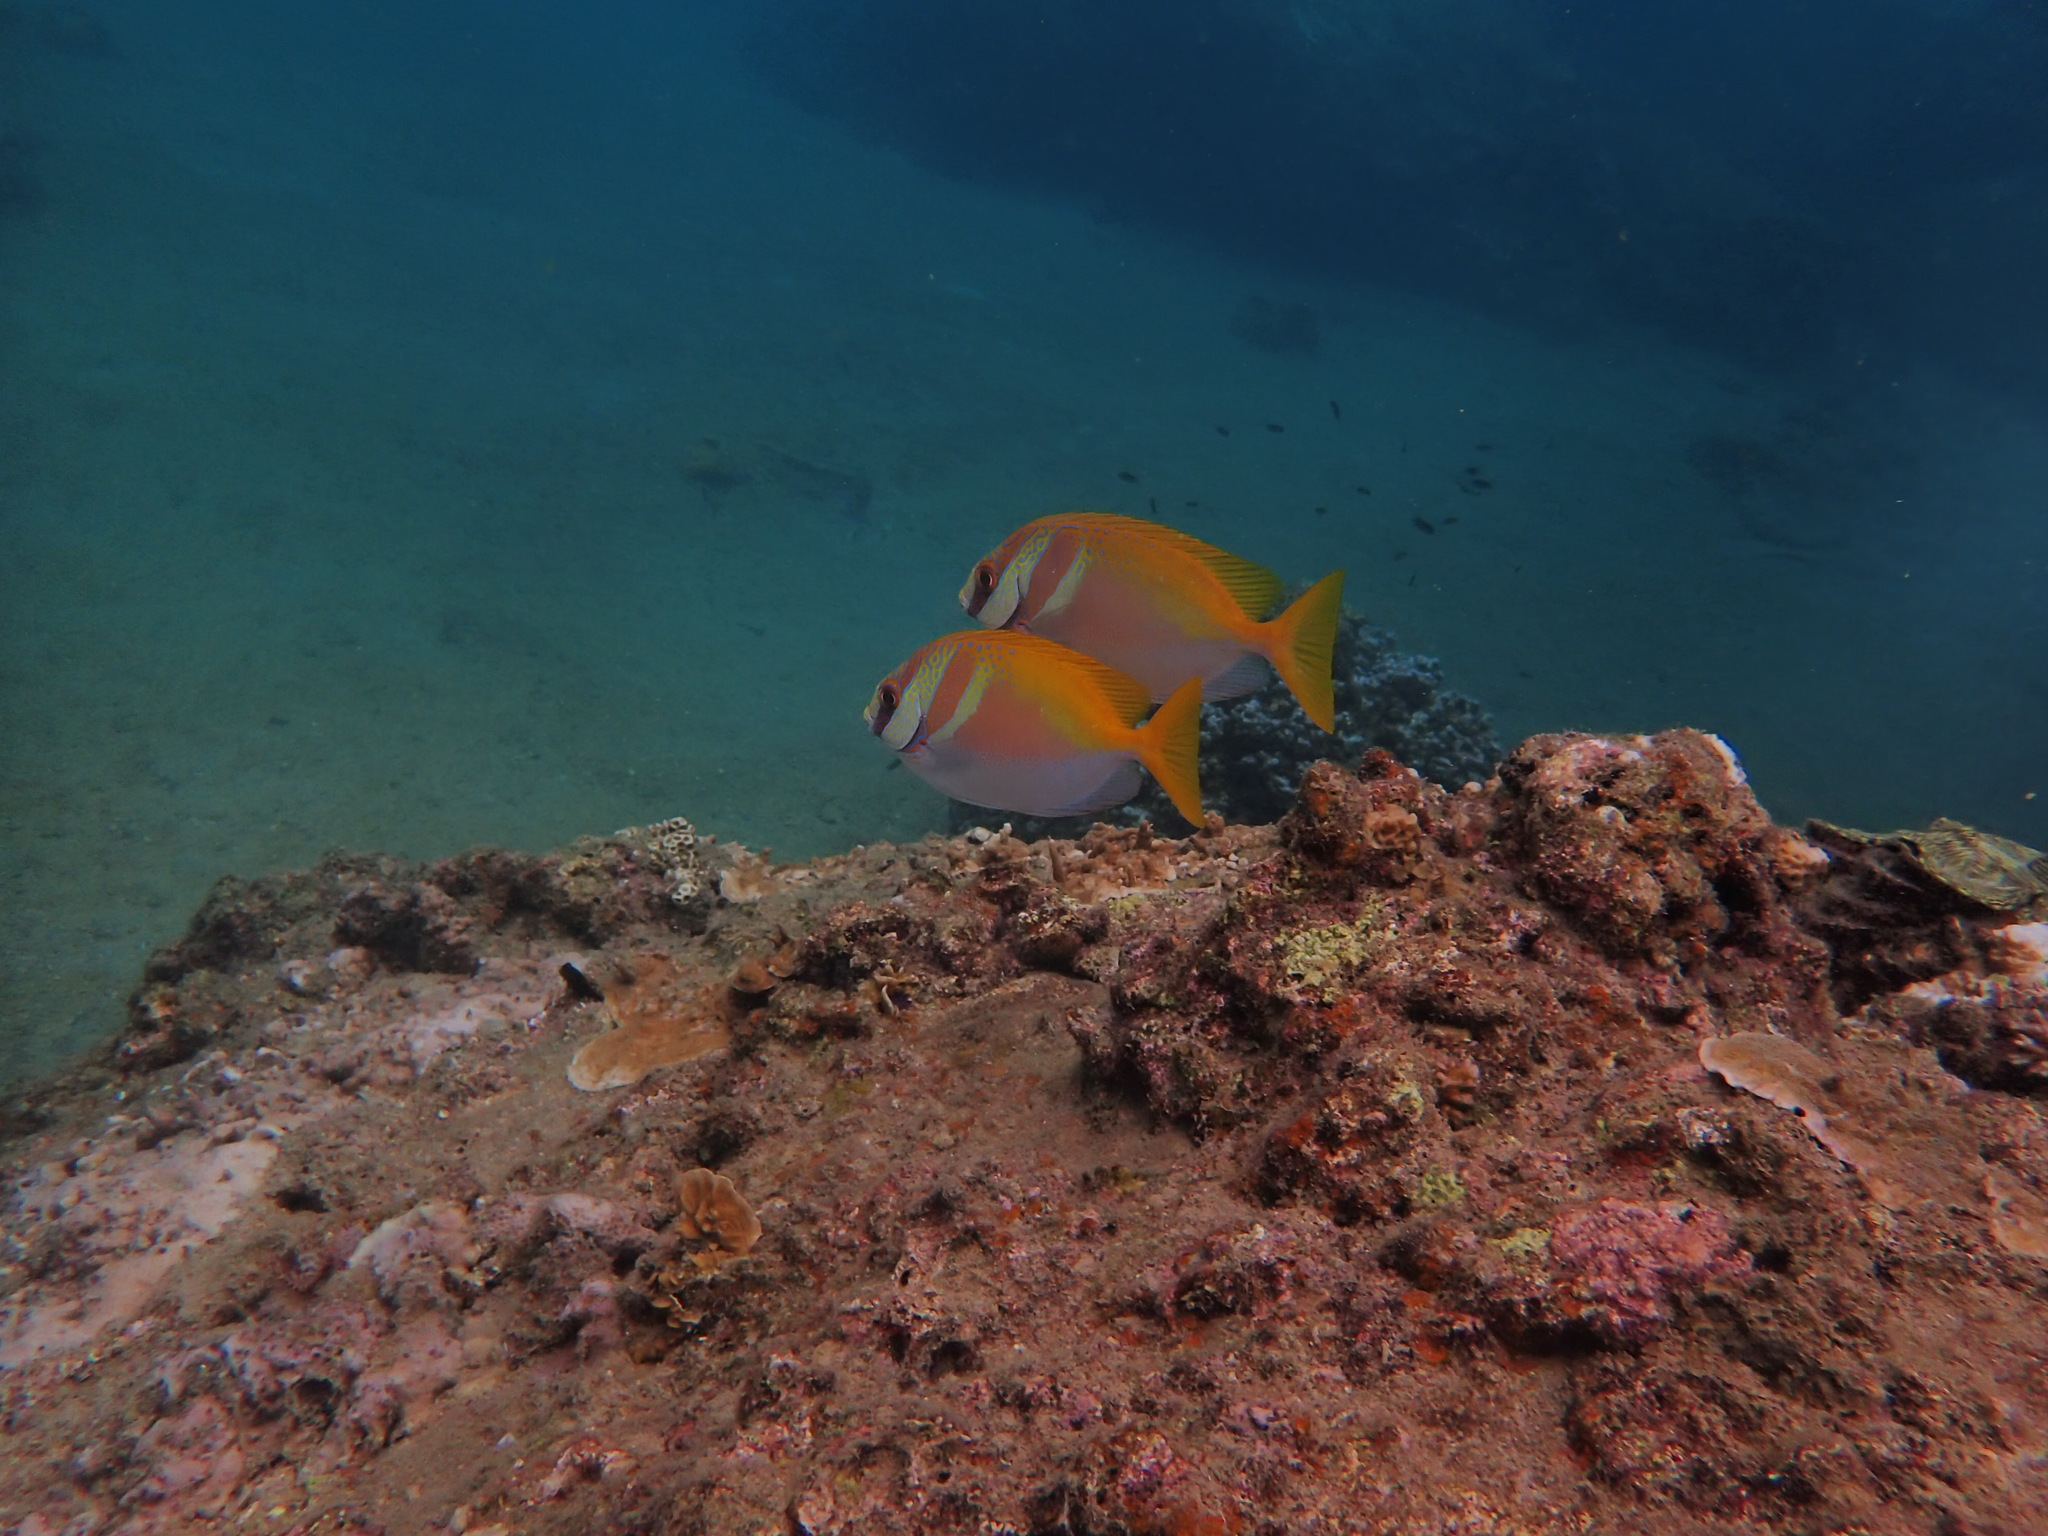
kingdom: Animalia
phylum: Chordata
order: Perciformes
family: Siganidae
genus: Siganus
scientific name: Siganus virgatus
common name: Barhead spinefoot
